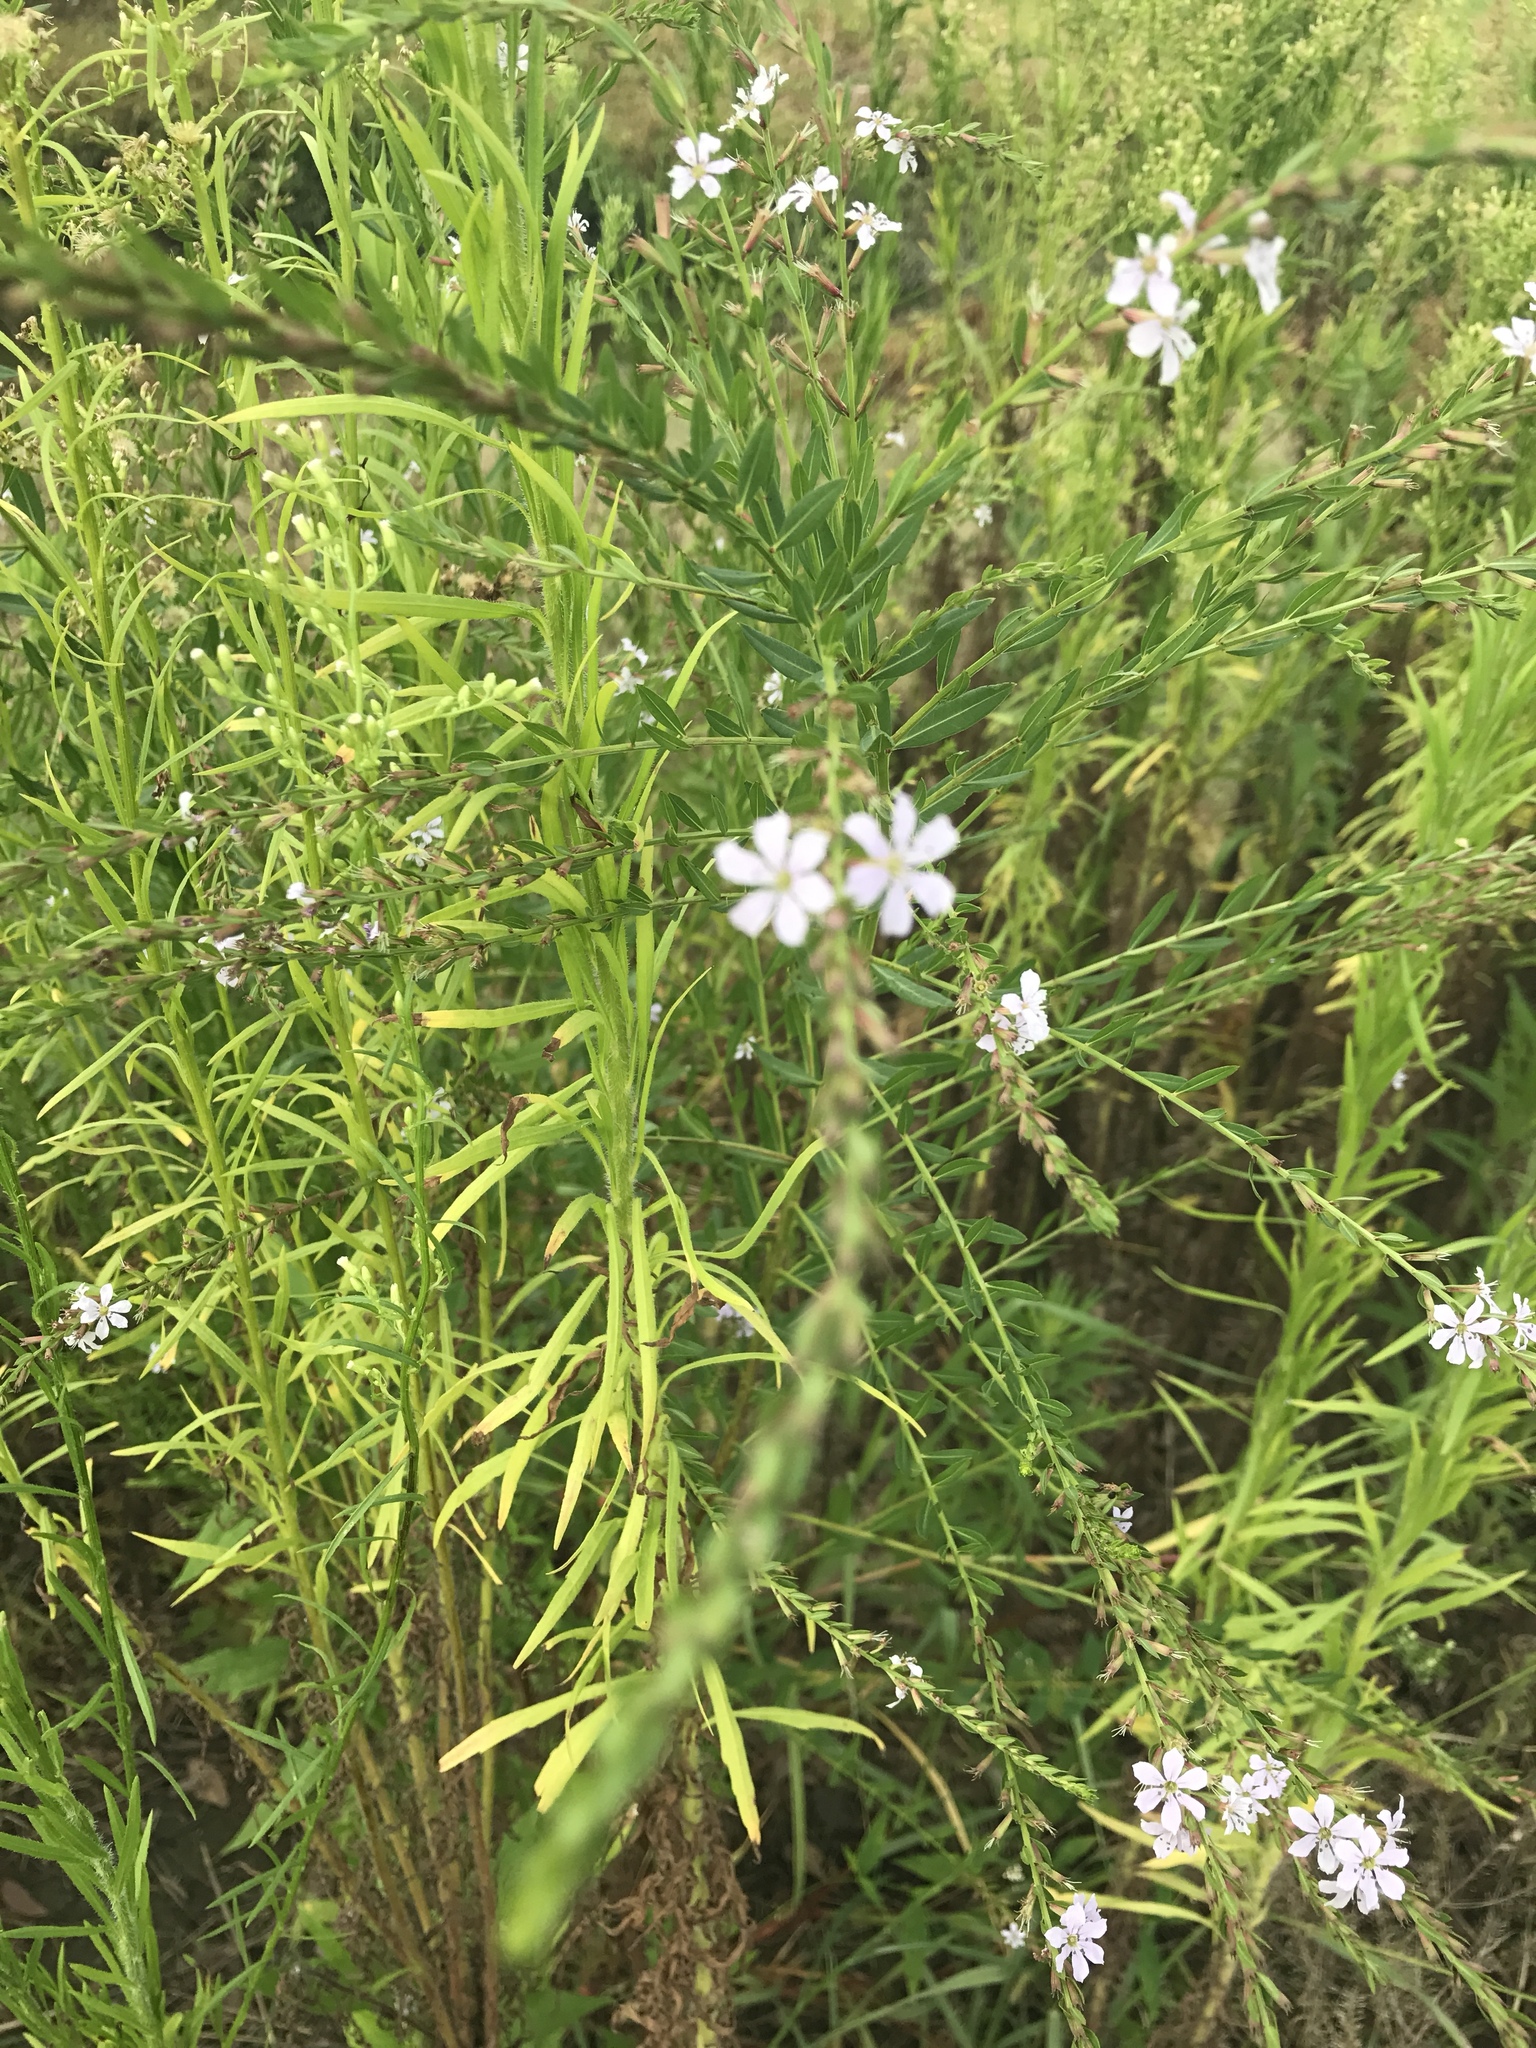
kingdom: Plantae
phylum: Tracheophyta
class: Magnoliopsida
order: Myrtales
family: Lythraceae
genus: Lythrum
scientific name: Lythrum alatum
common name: Winged loosestrife
